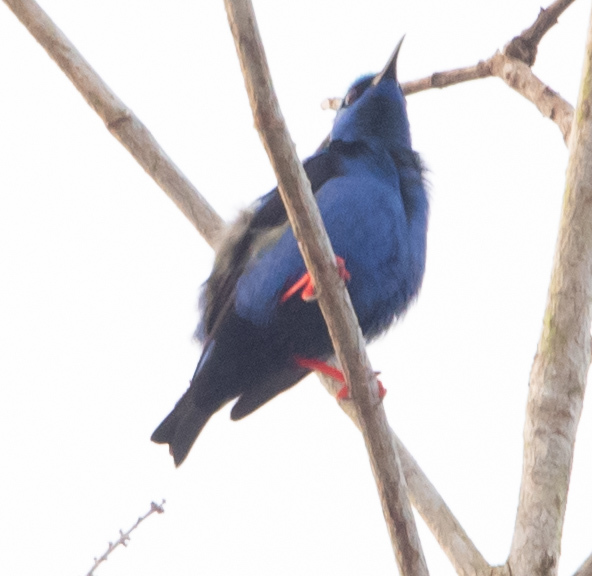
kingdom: Animalia
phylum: Chordata
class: Aves
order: Passeriformes
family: Thraupidae
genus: Cyanerpes
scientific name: Cyanerpes cyaneus
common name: Red-legged honeycreeper
